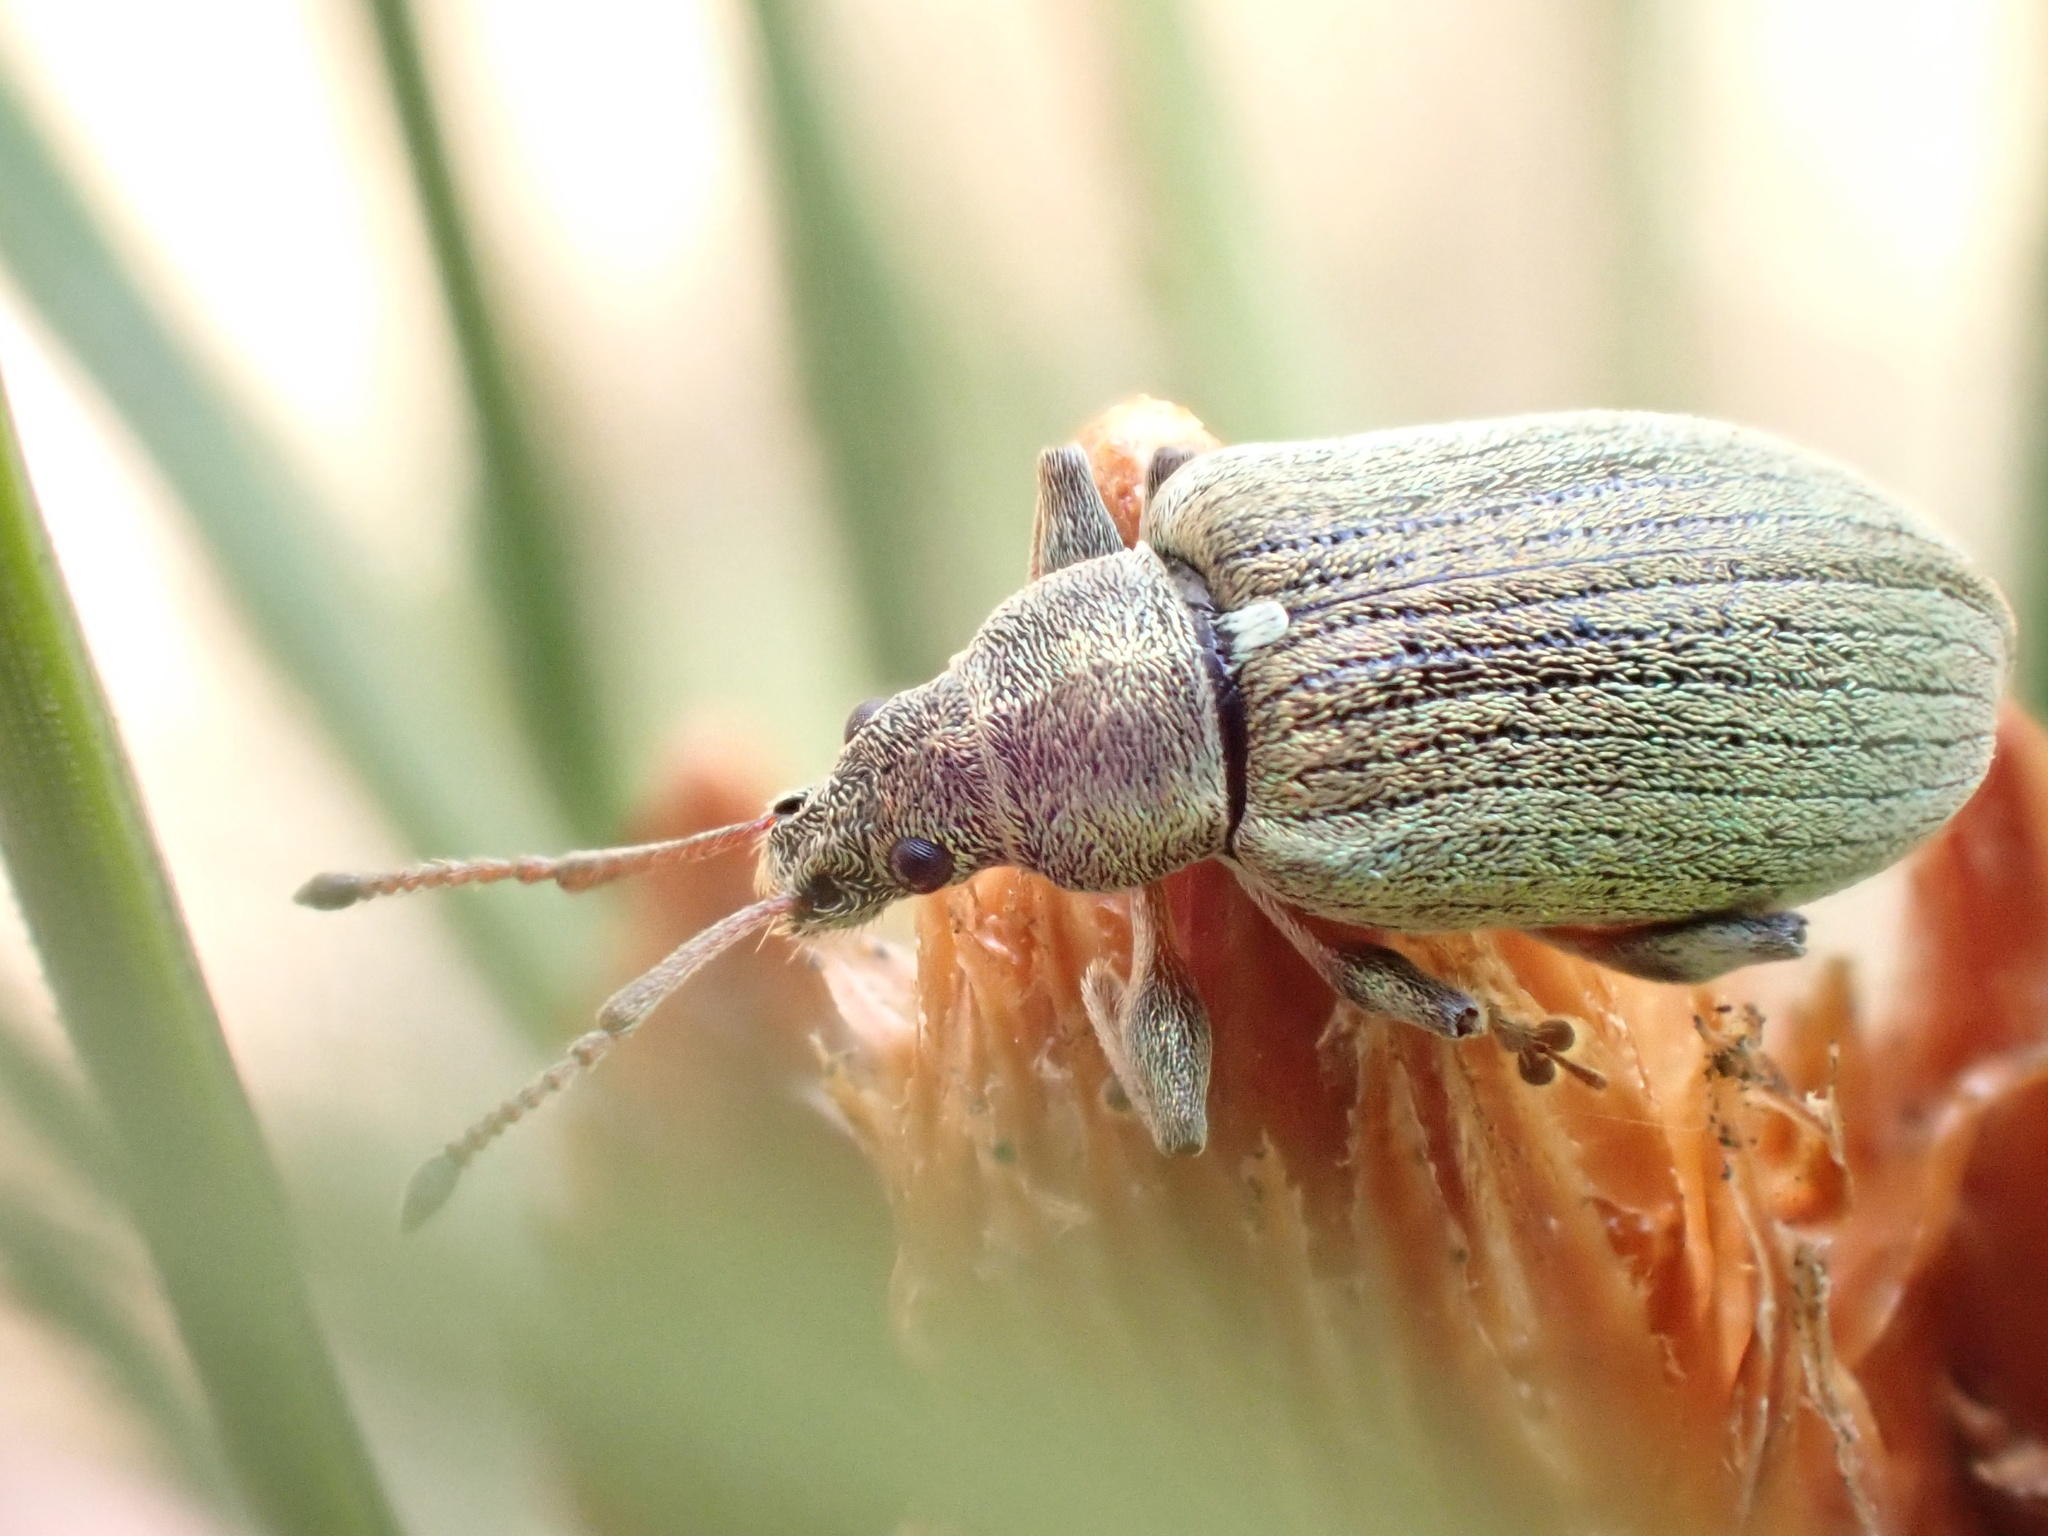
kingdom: Animalia
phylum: Arthropoda
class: Insecta
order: Coleoptera
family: Curculionidae
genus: Phyllobius
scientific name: Phyllobius pyri
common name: Common leaf weevil
